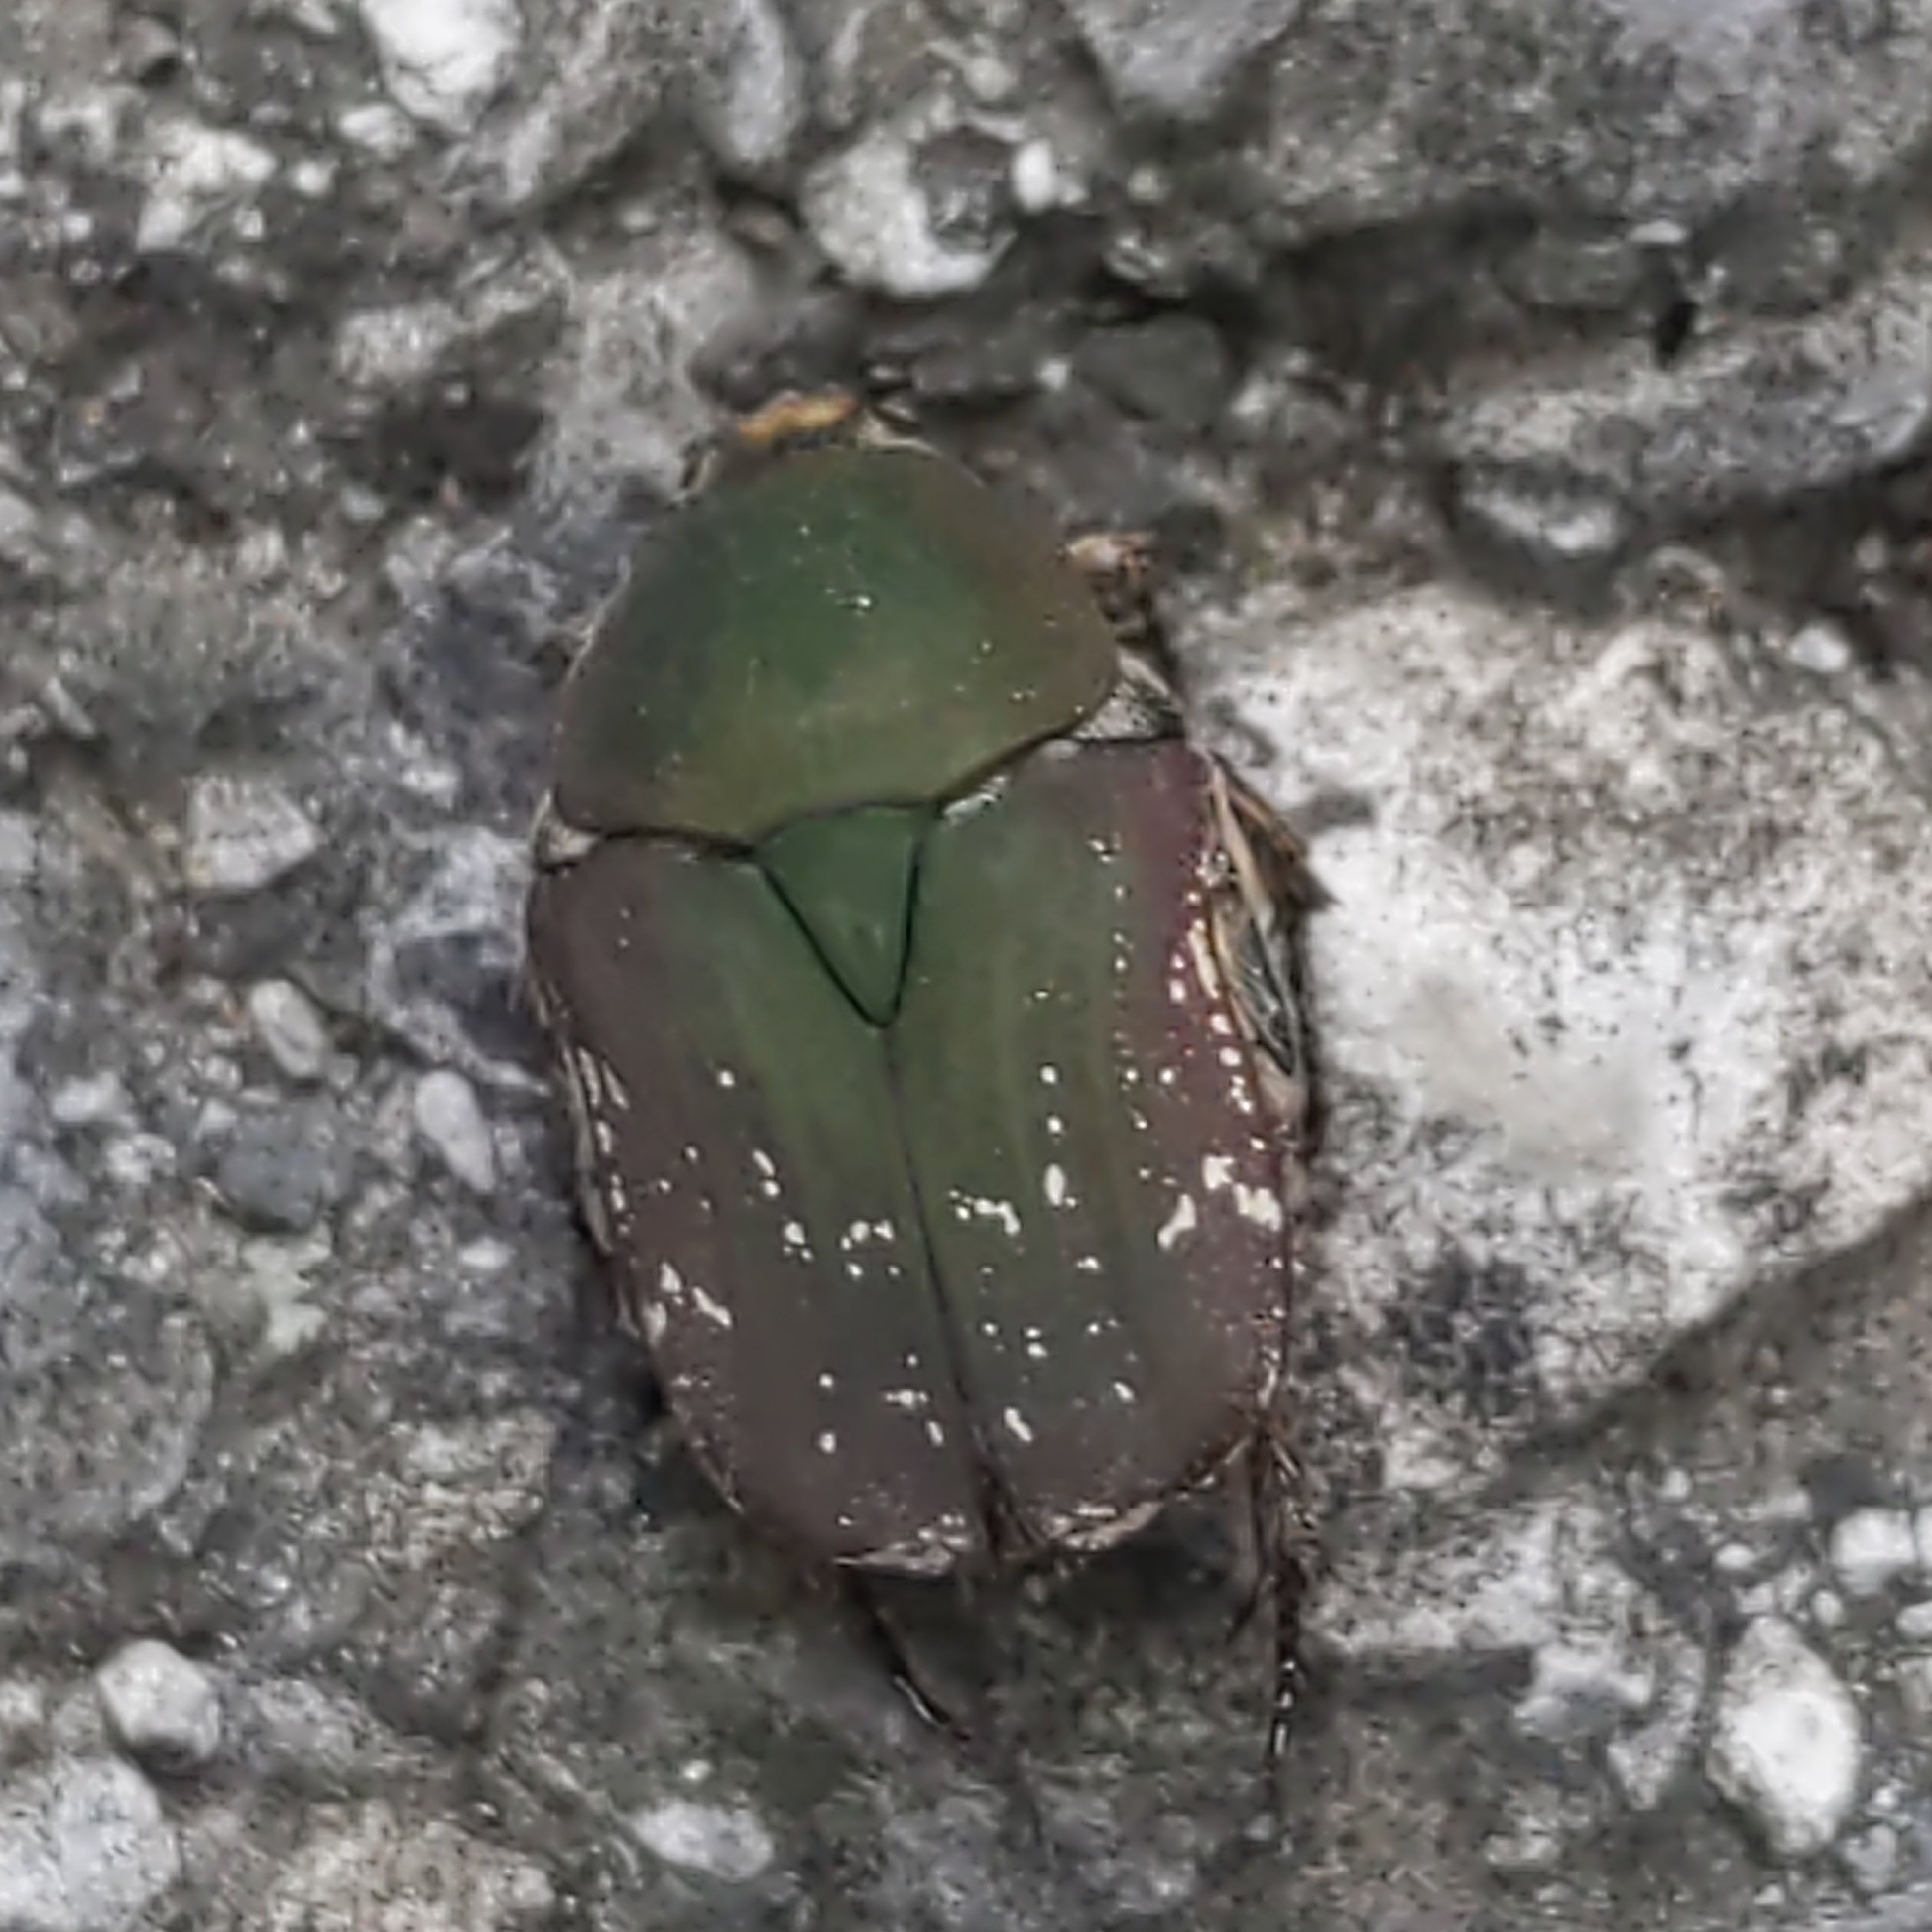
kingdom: Animalia
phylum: Arthropoda
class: Insecta
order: Coleoptera
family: Scarabaeidae
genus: Euphoria
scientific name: Euphoria herbacea
